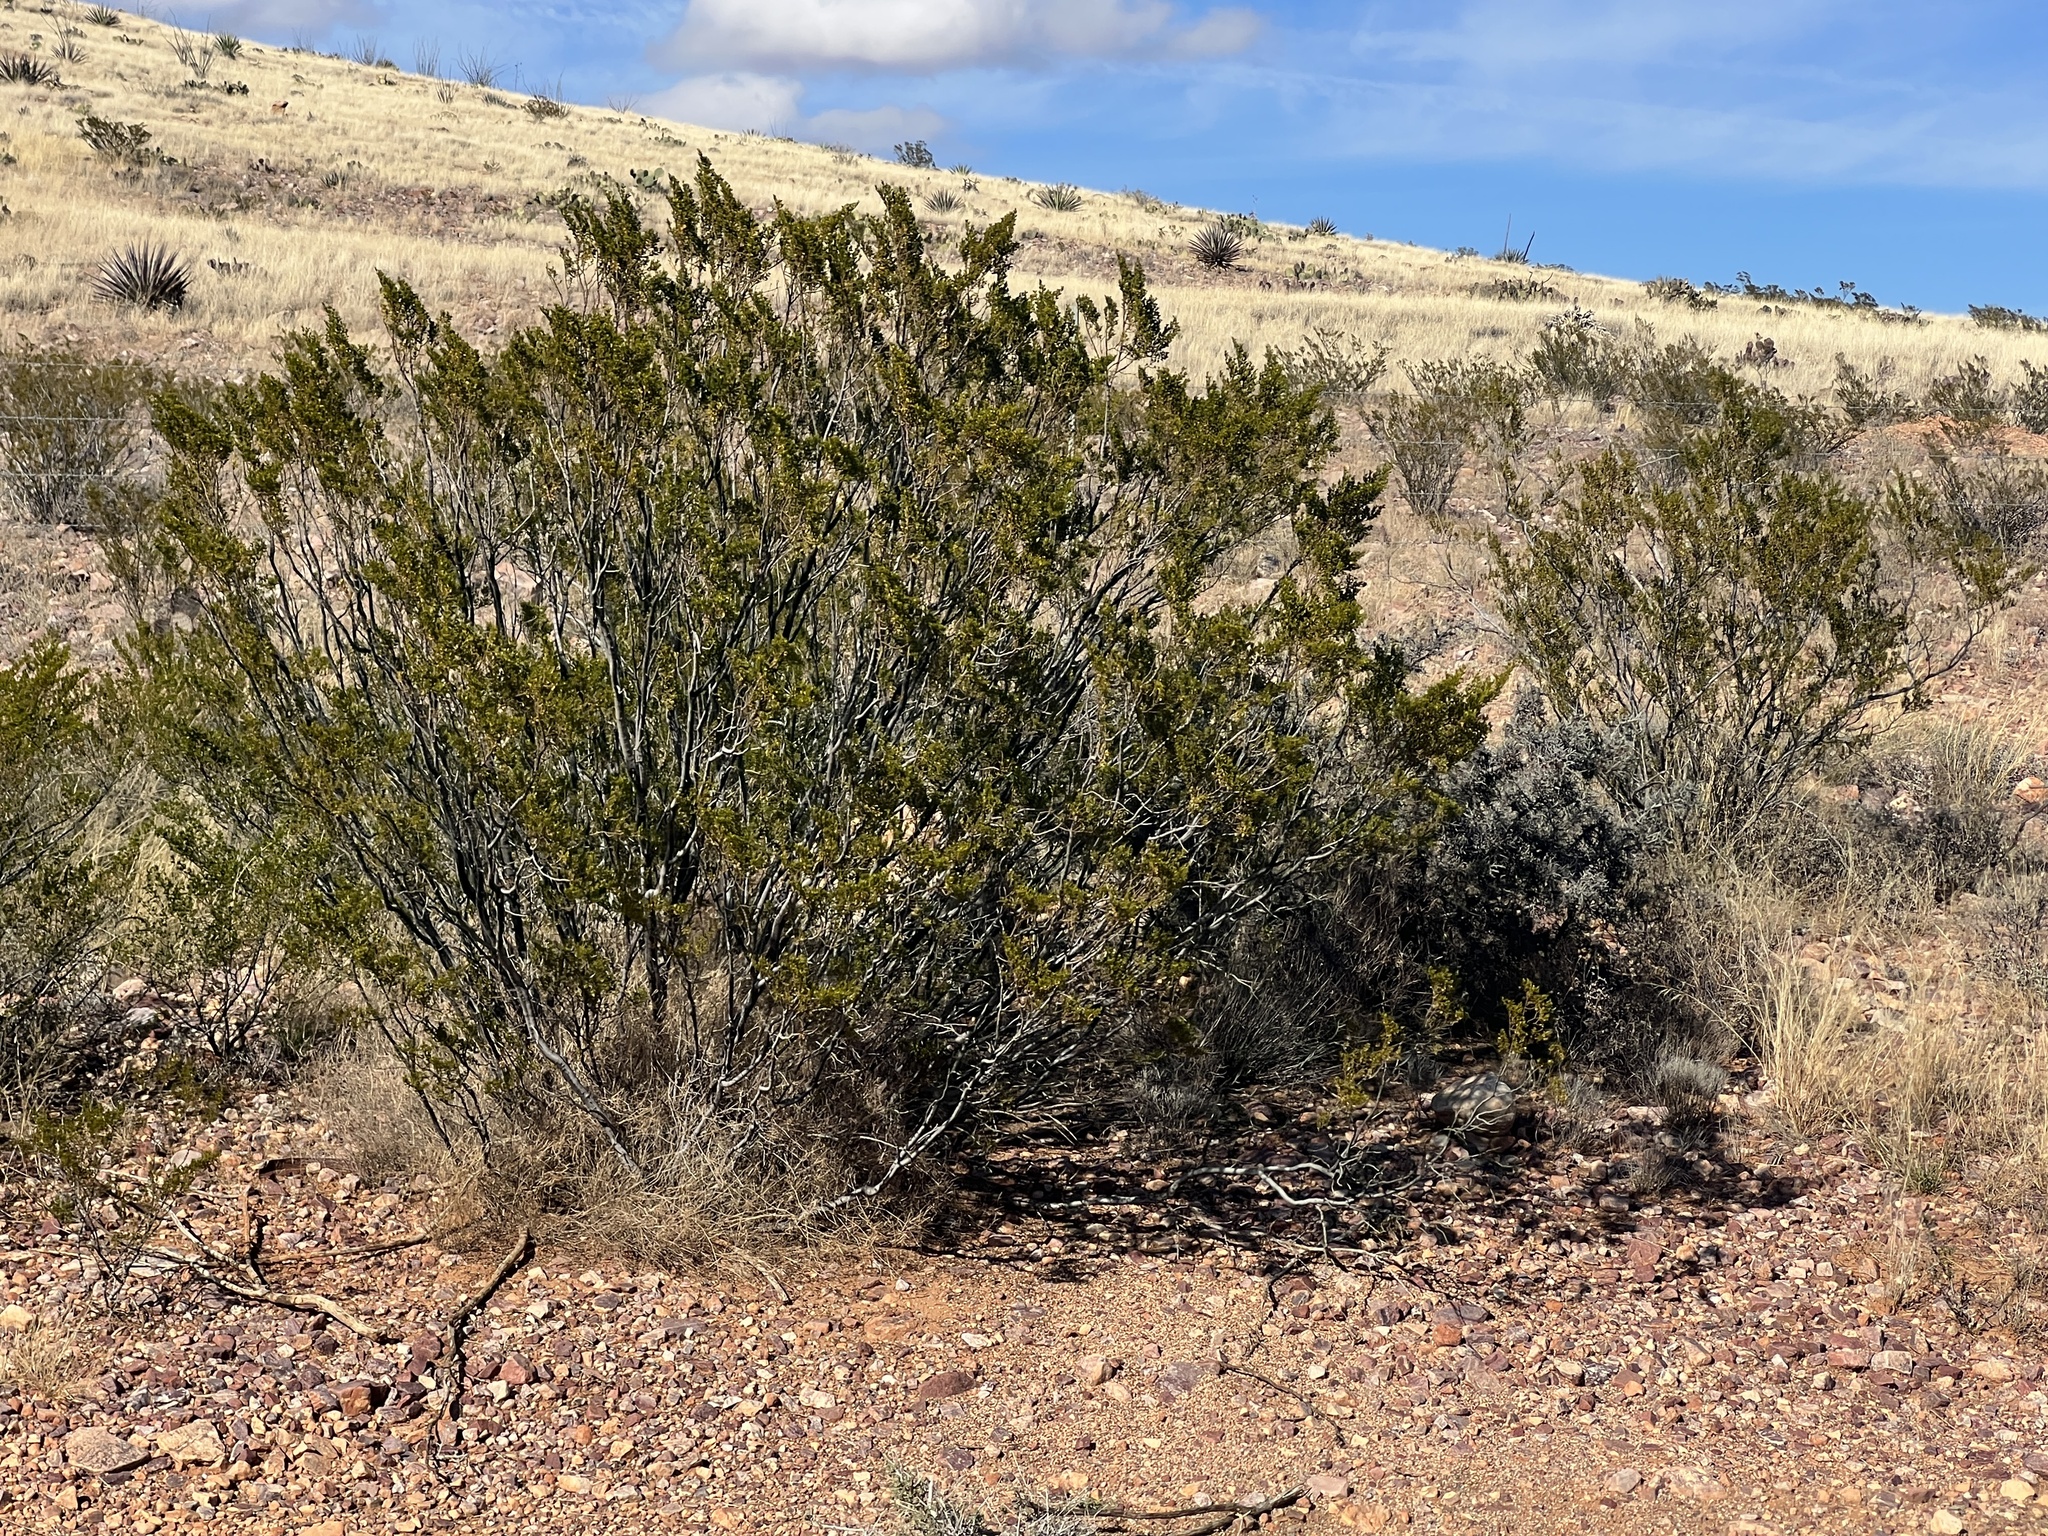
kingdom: Plantae
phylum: Tracheophyta
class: Magnoliopsida
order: Zygophyllales
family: Zygophyllaceae
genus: Larrea
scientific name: Larrea tridentata
